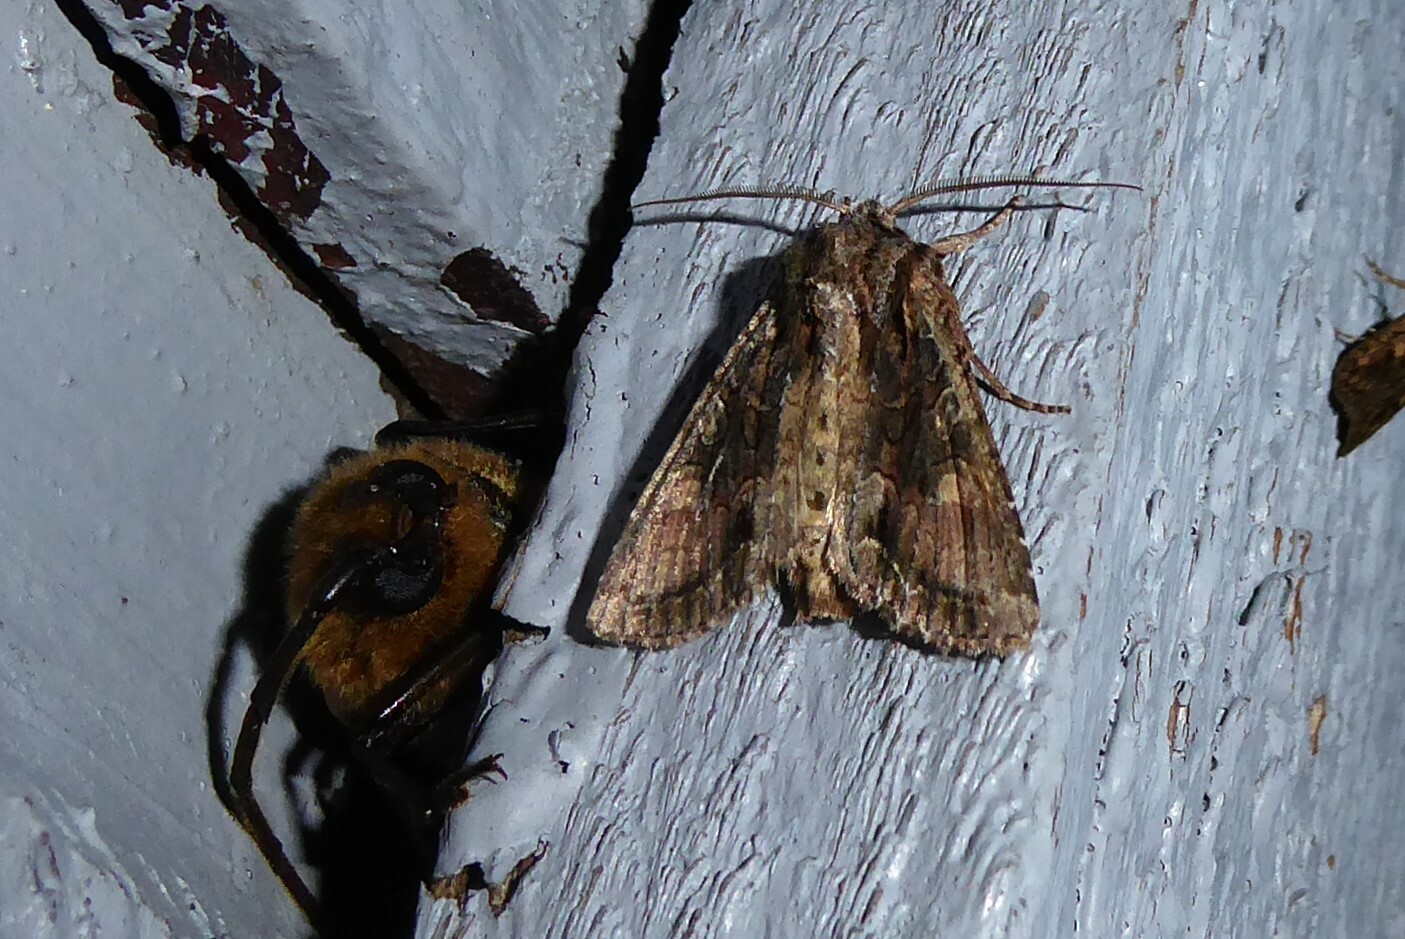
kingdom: Animalia
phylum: Arthropoda
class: Insecta
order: Lepidoptera
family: Noctuidae
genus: Ichneutica
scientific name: Ichneutica mutans
